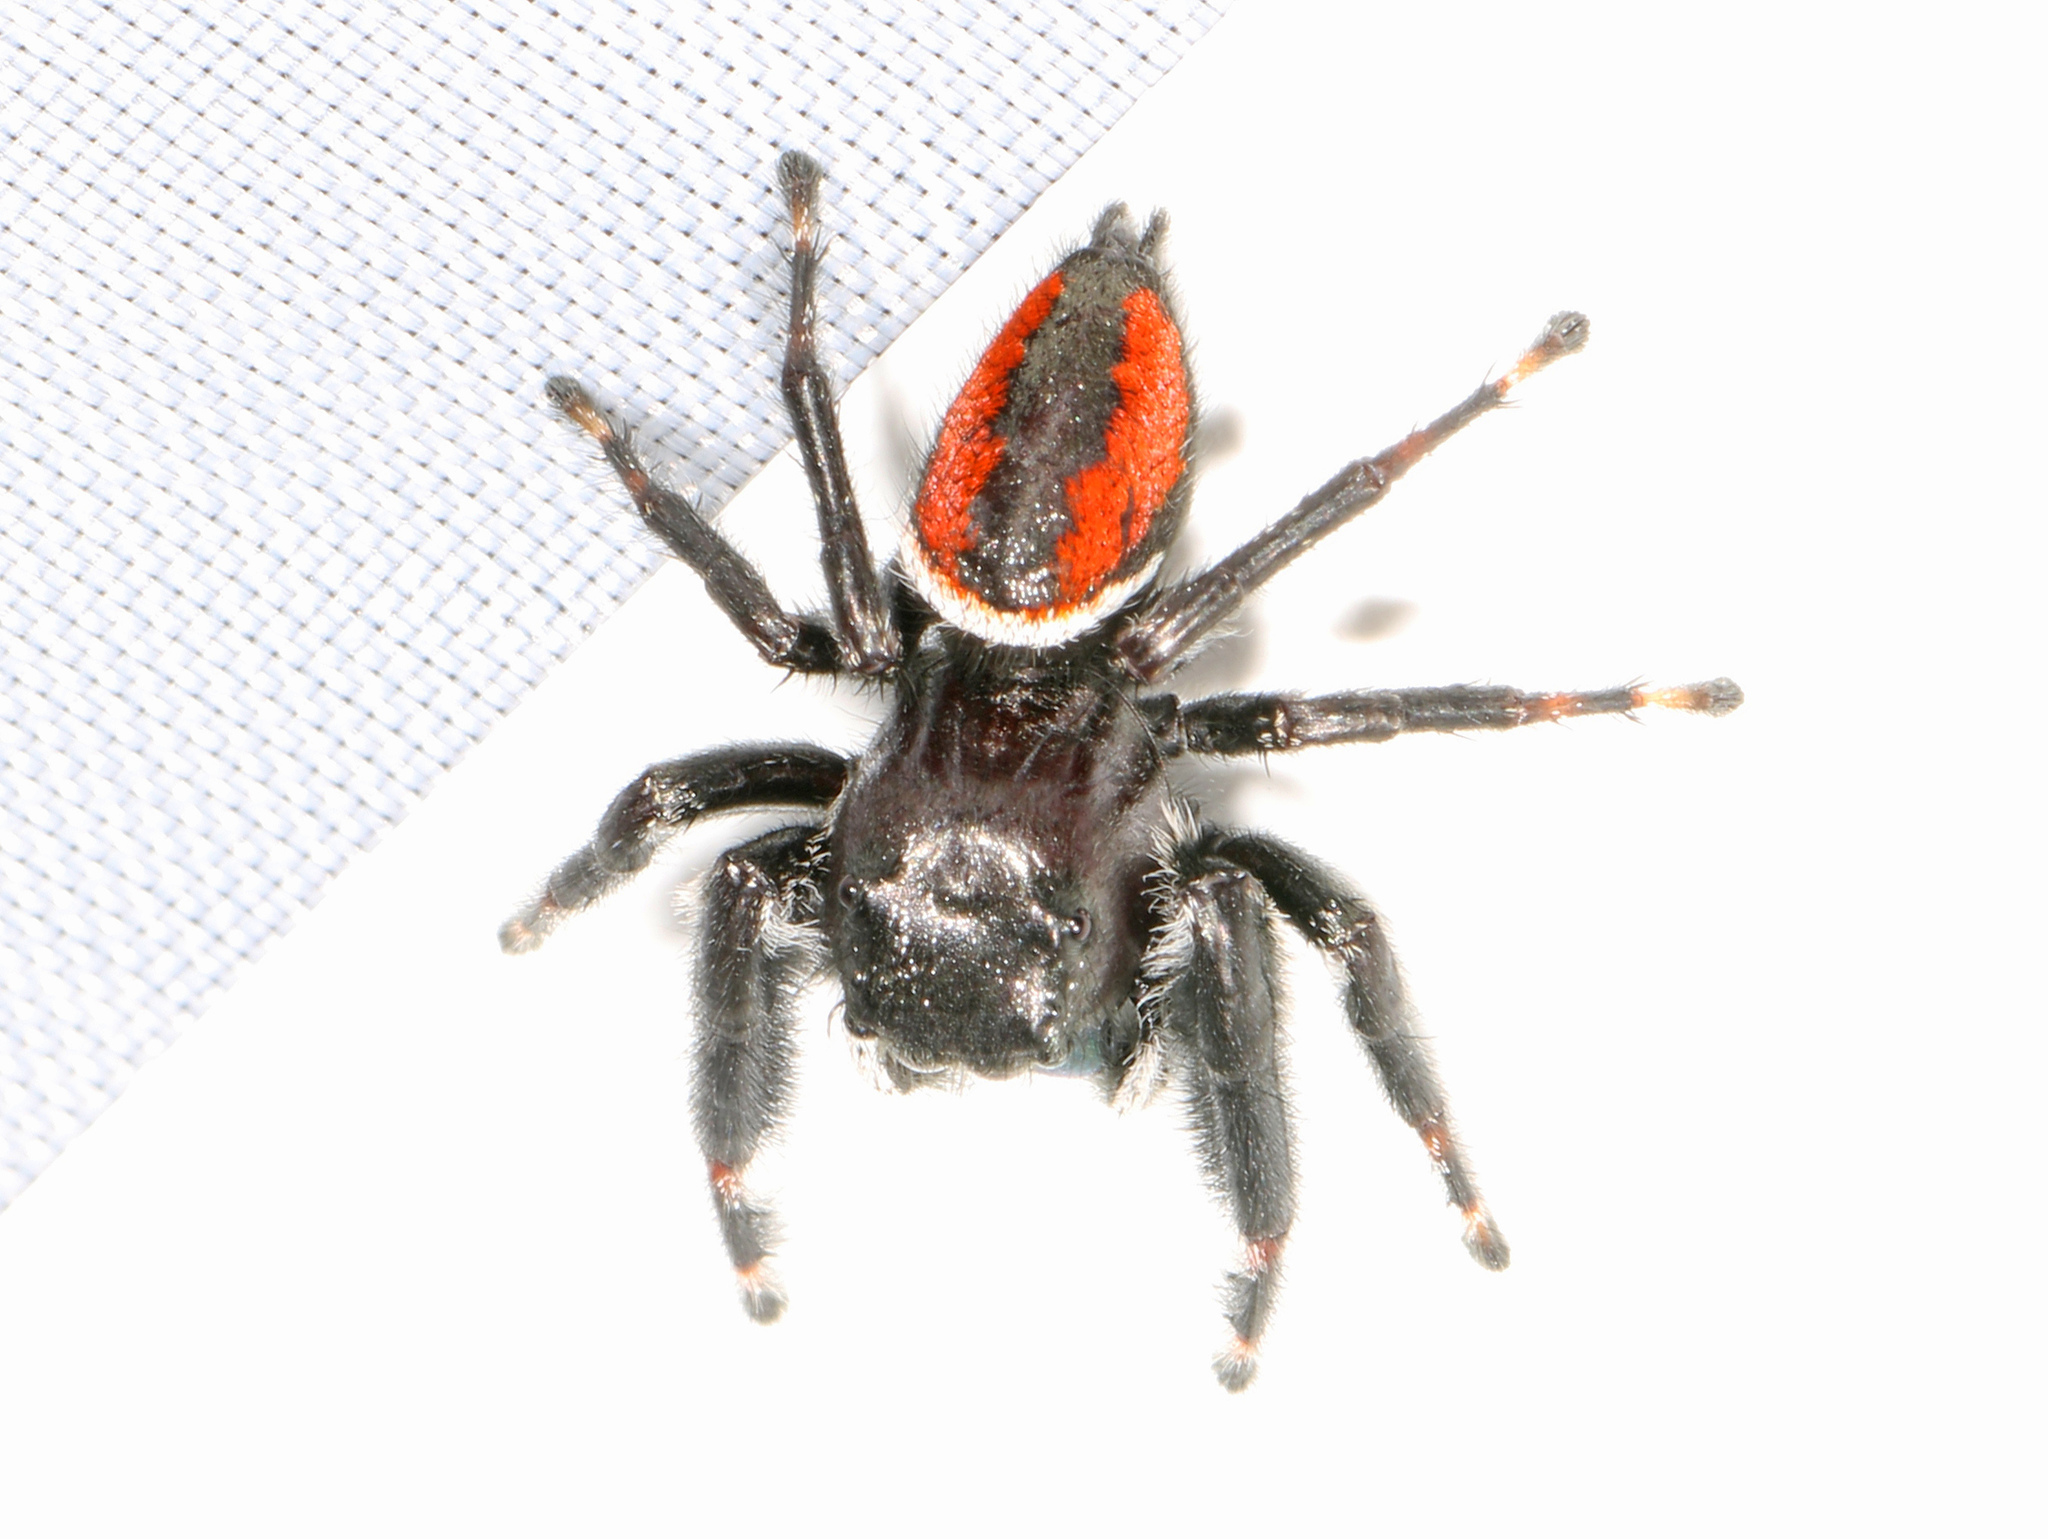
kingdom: Animalia
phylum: Arthropoda
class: Arachnida
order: Araneae
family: Salticidae
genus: Phidippus
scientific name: Phidippus clarus
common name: Brilliant jumping spider
